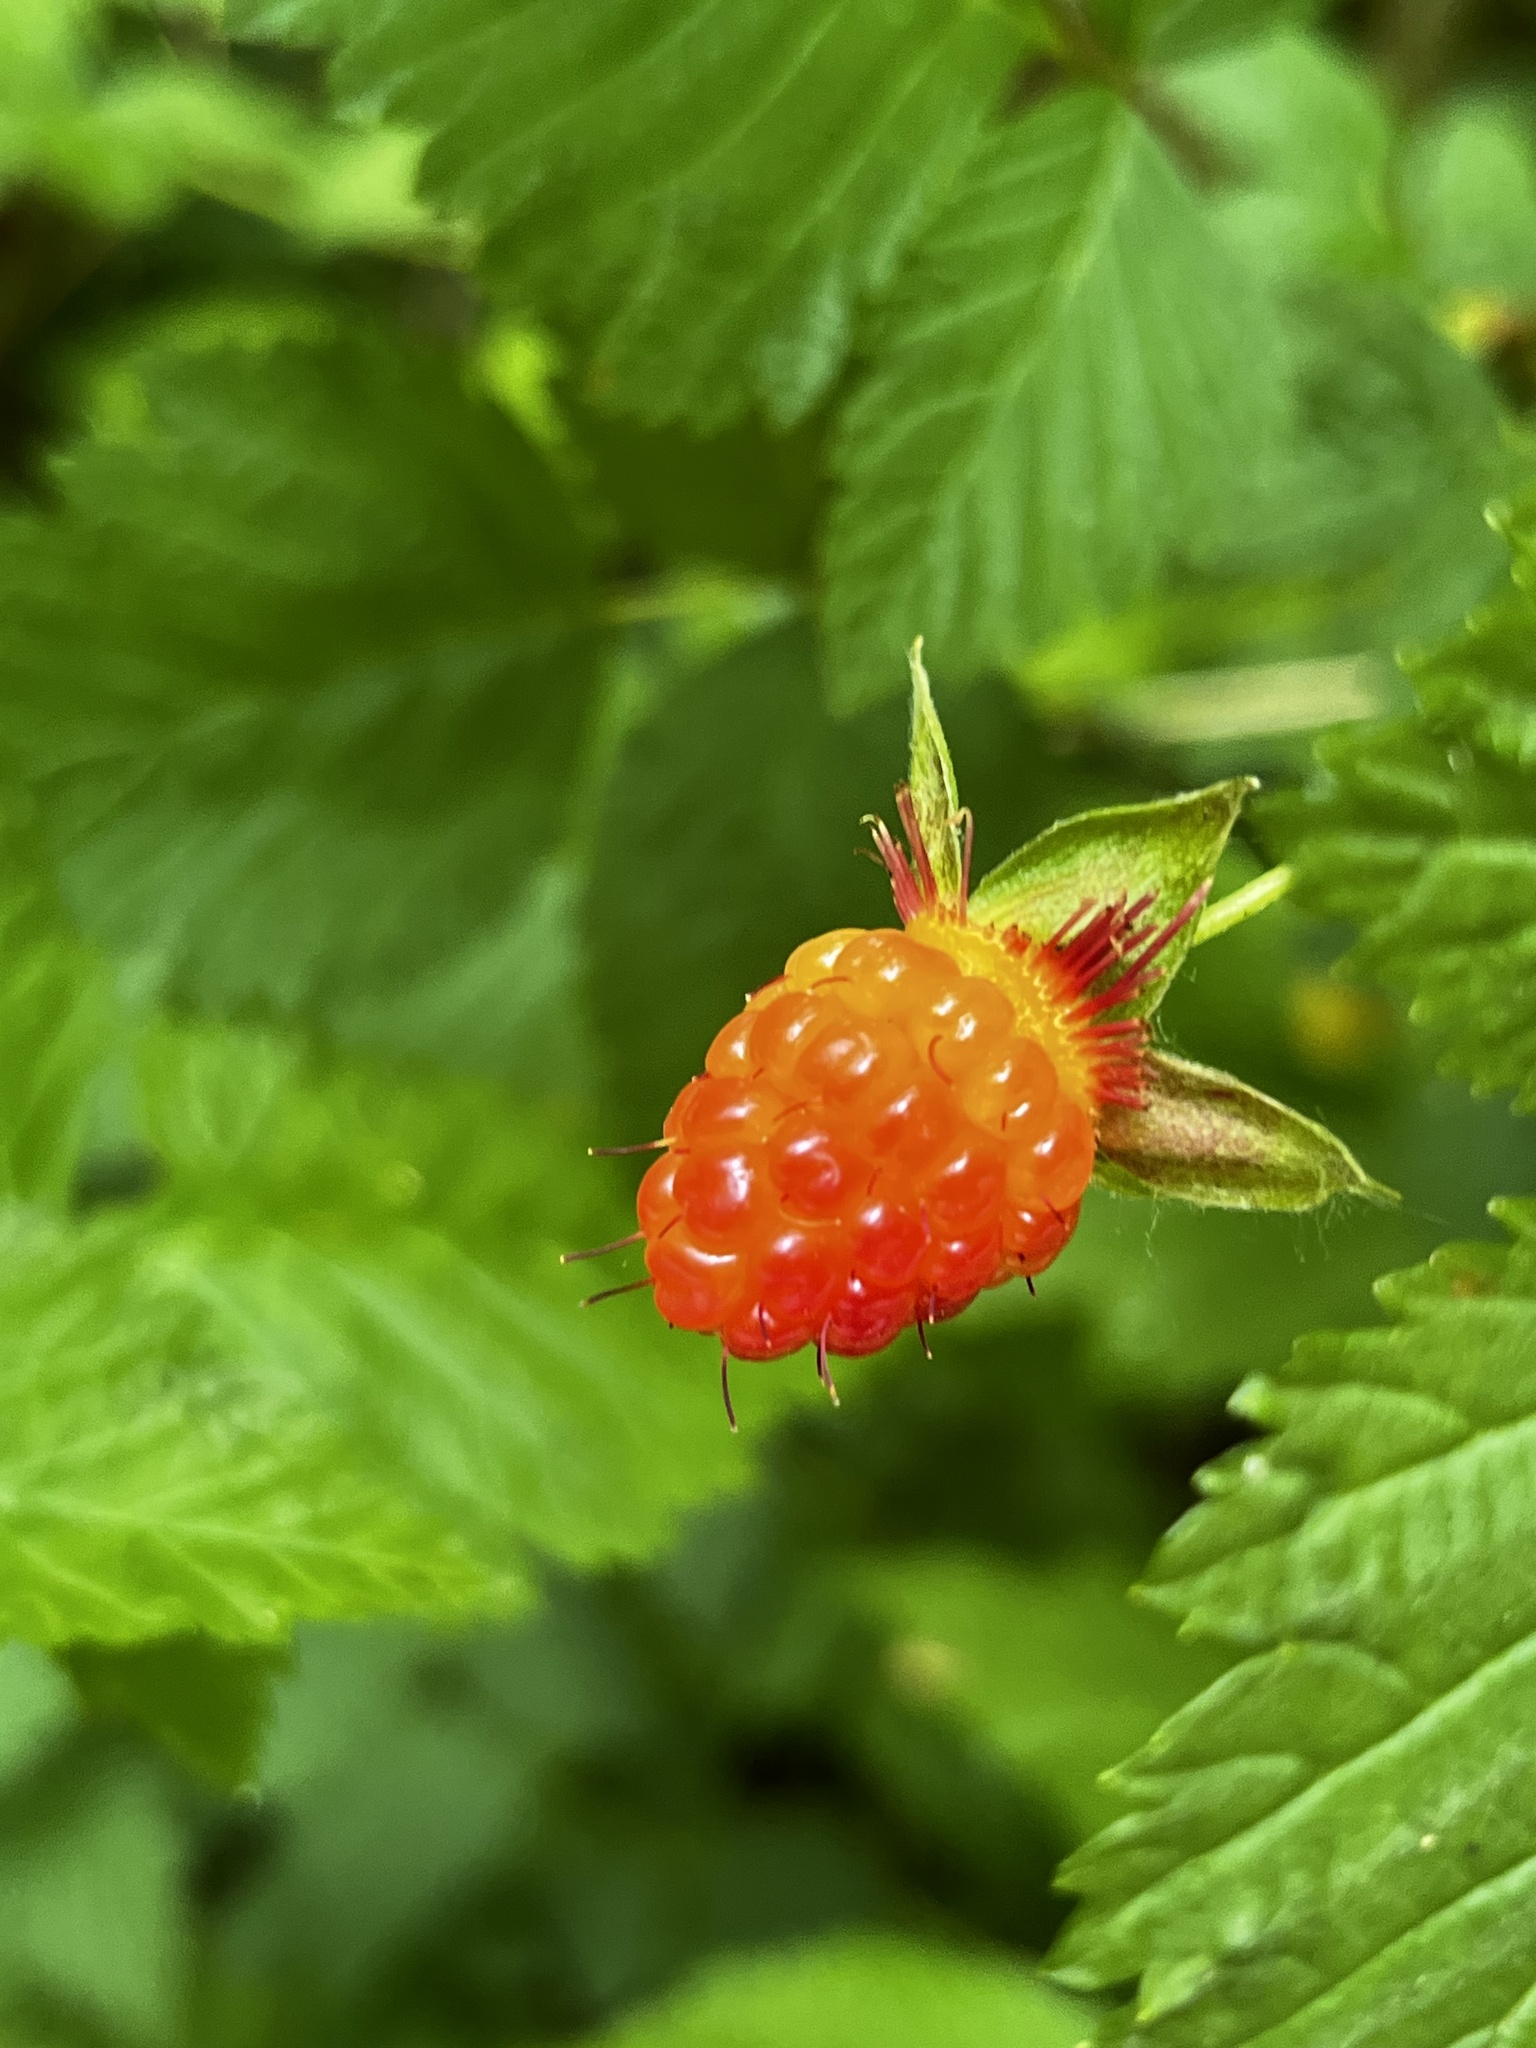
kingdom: Plantae
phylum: Tracheophyta
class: Magnoliopsida
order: Rosales
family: Rosaceae
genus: Rubus
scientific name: Rubus spectabilis
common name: Salmonberry
